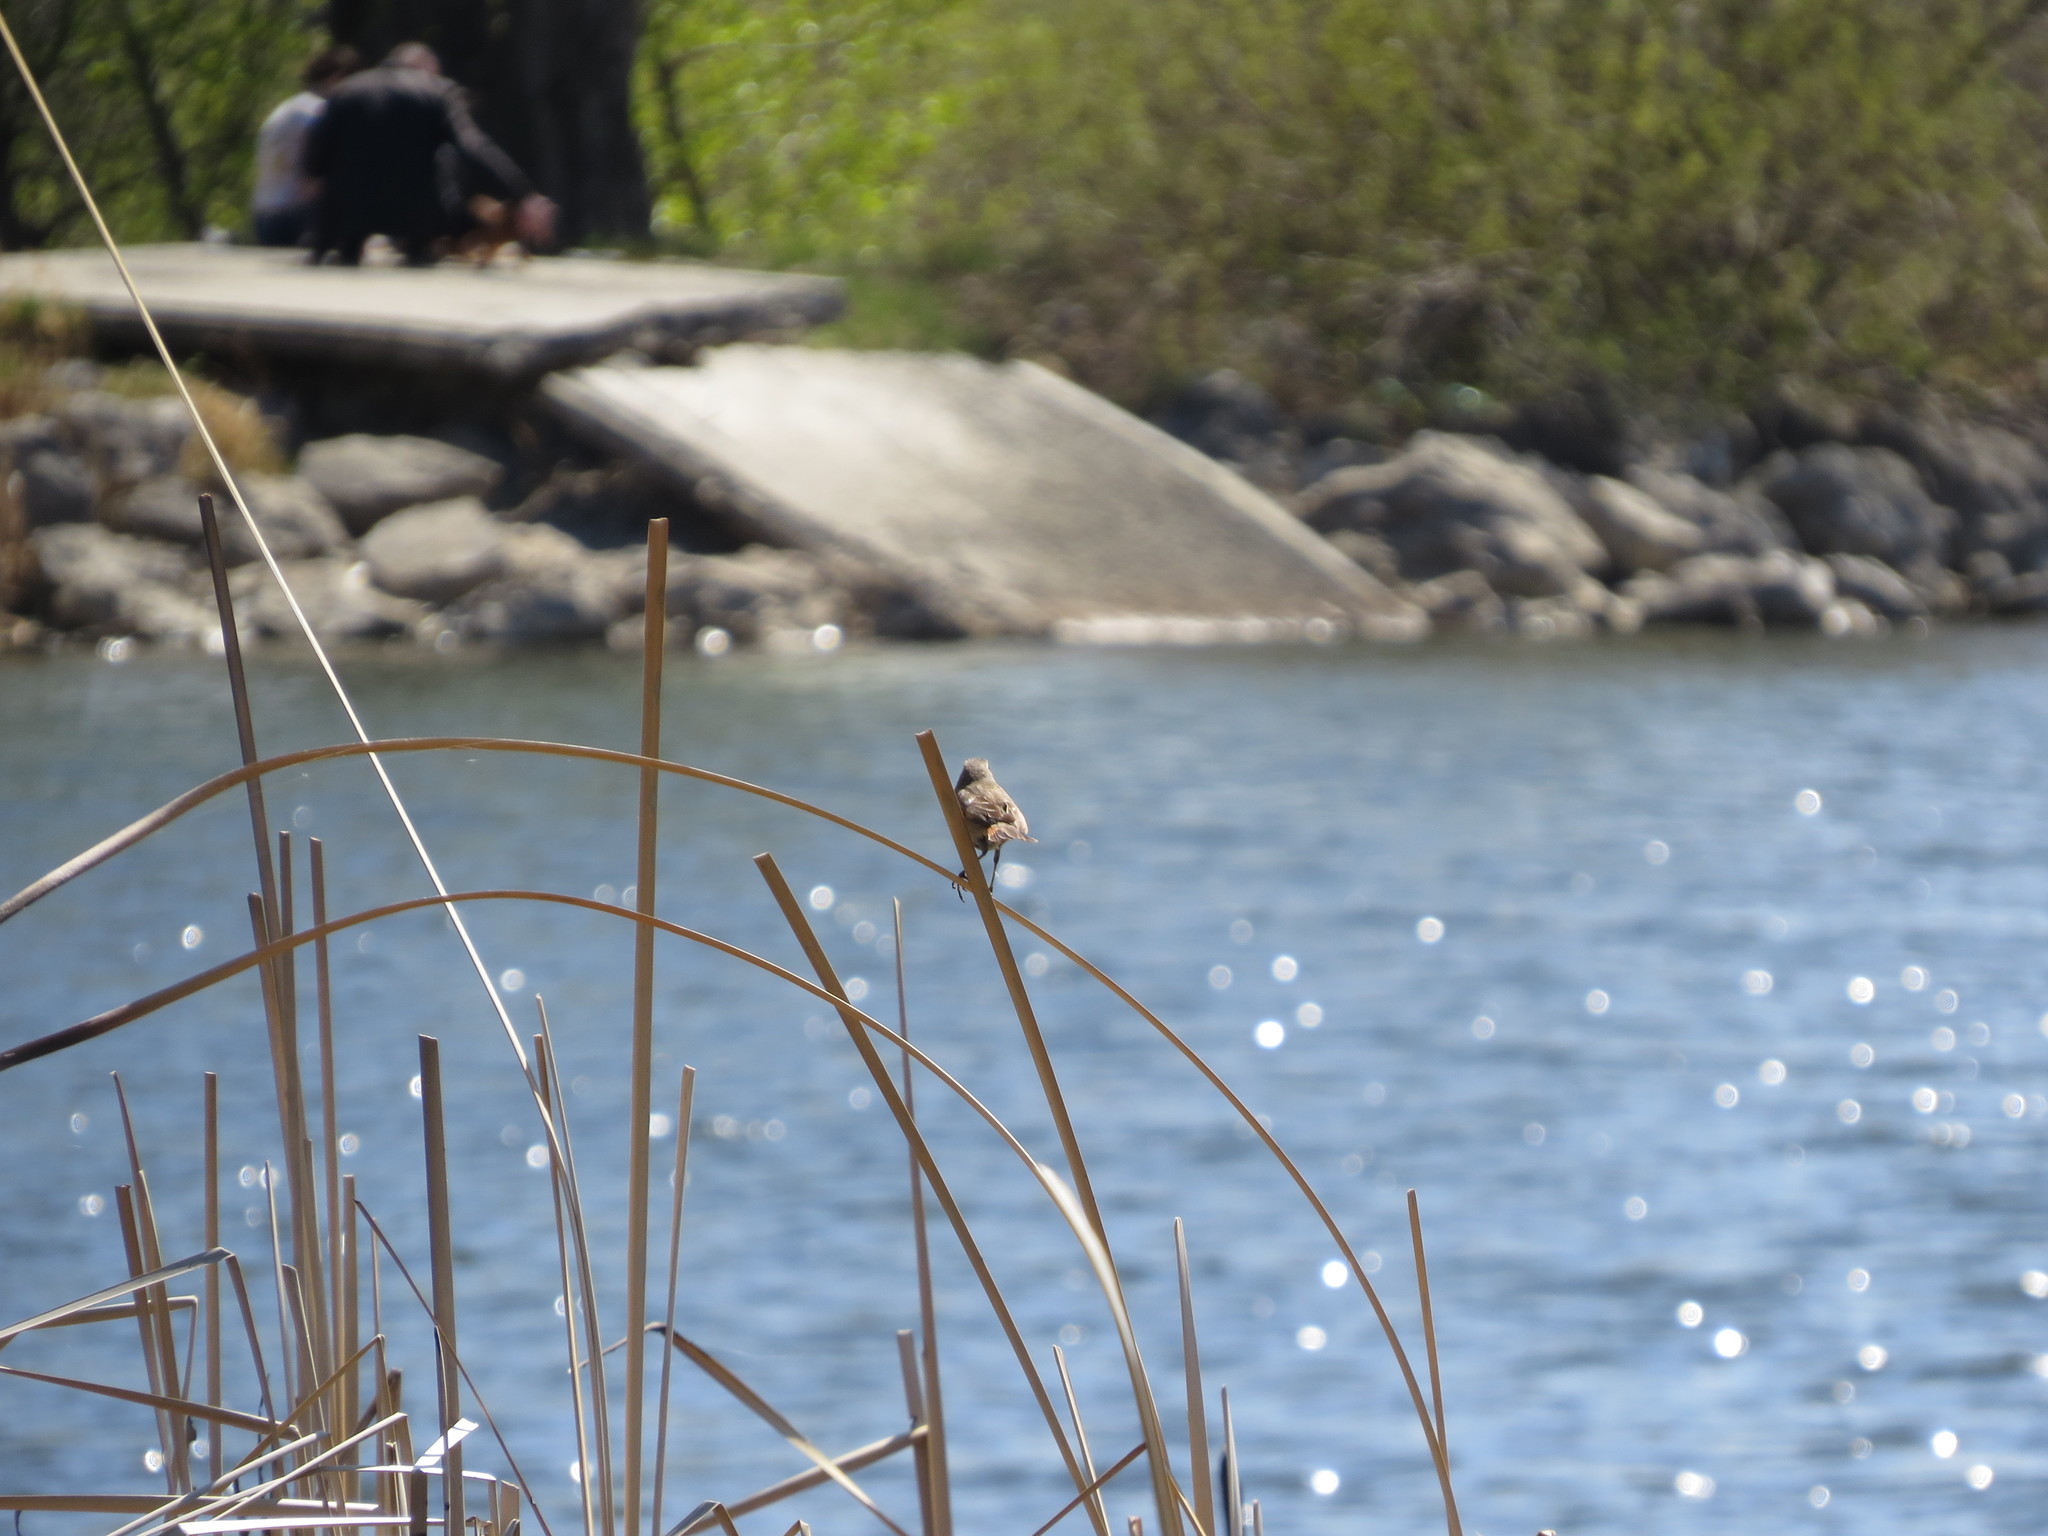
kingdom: Animalia
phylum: Chordata
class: Aves
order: Passeriformes
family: Muscicapidae
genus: Luscinia
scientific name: Luscinia svecica
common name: Bluethroat
